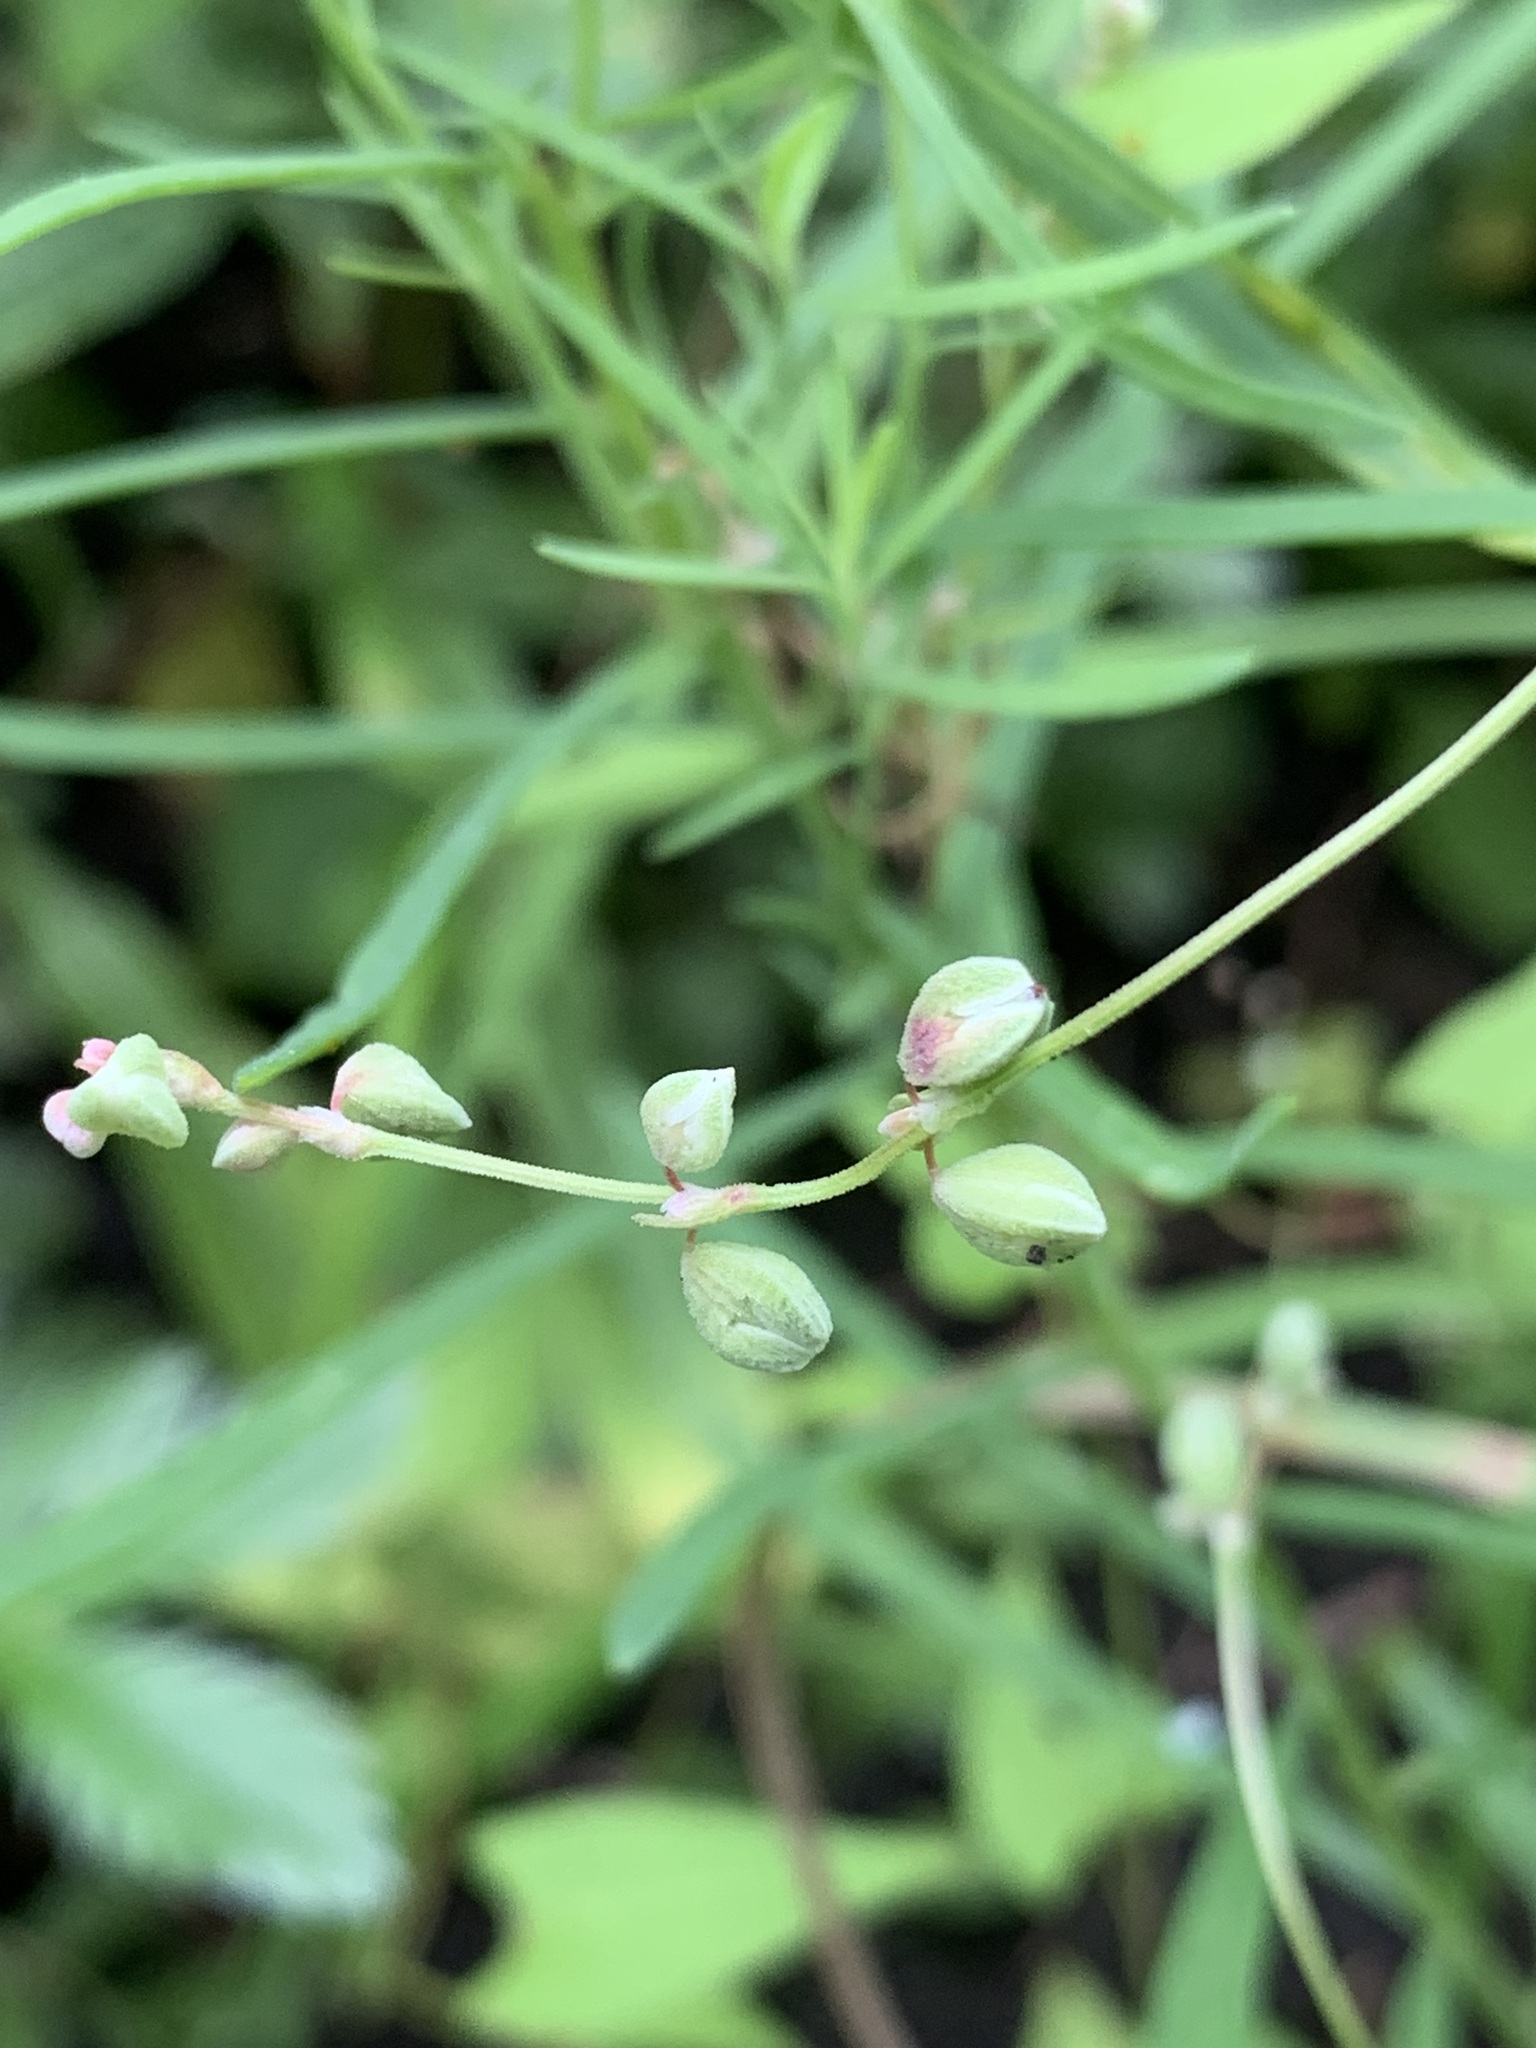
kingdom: Plantae
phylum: Tracheophyta
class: Magnoliopsida
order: Caryophyllales
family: Polygonaceae
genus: Fallopia
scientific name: Fallopia convolvulus
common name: Black bindweed
